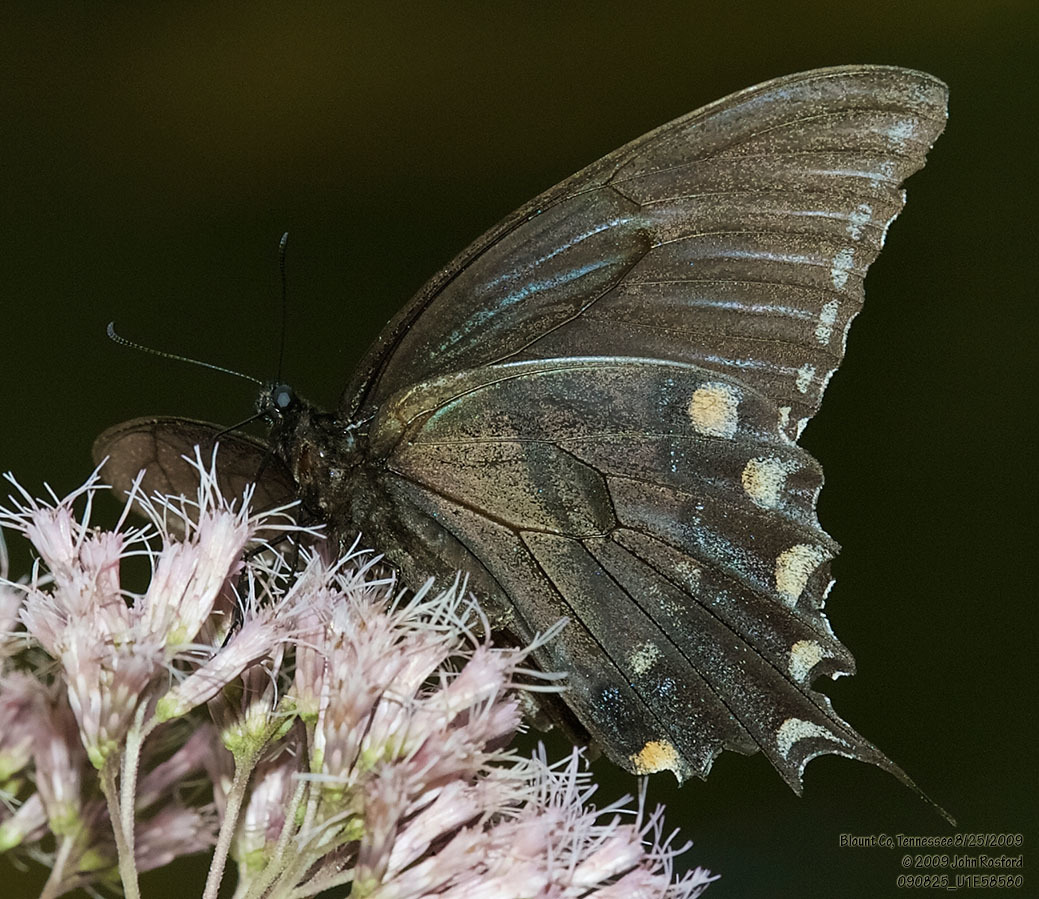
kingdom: Animalia
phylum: Arthropoda
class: Insecta
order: Lepidoptera
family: Papilionidae
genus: Papilio
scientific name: Papilio glaucus
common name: Tiger swallowtail
